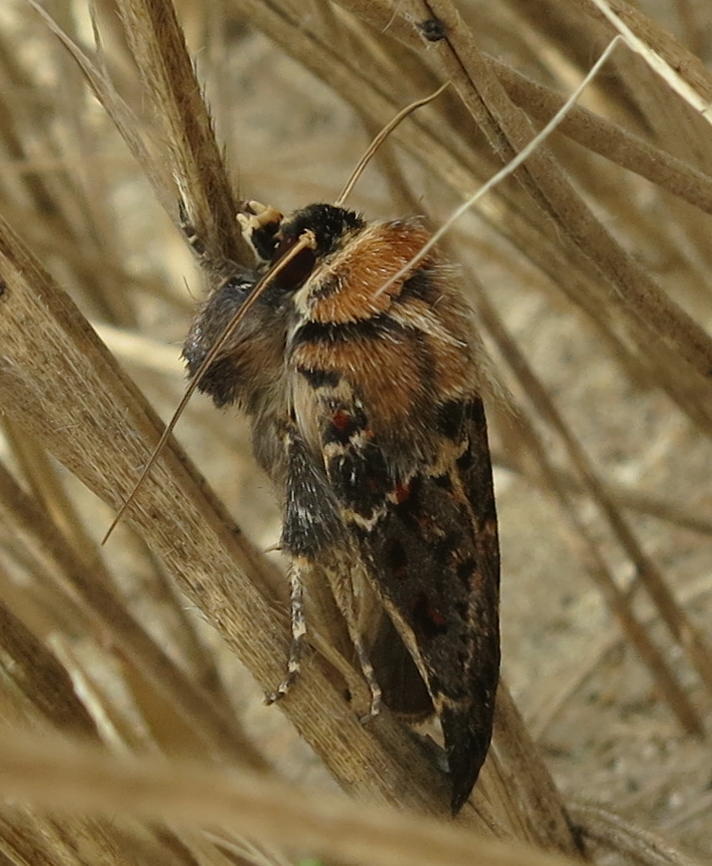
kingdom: Animalia
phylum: Arthropoda
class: Insecta
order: Lepidoptera
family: Noctuidae
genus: Proteuxoa
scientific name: Proteuxoa sanguinipuncta
